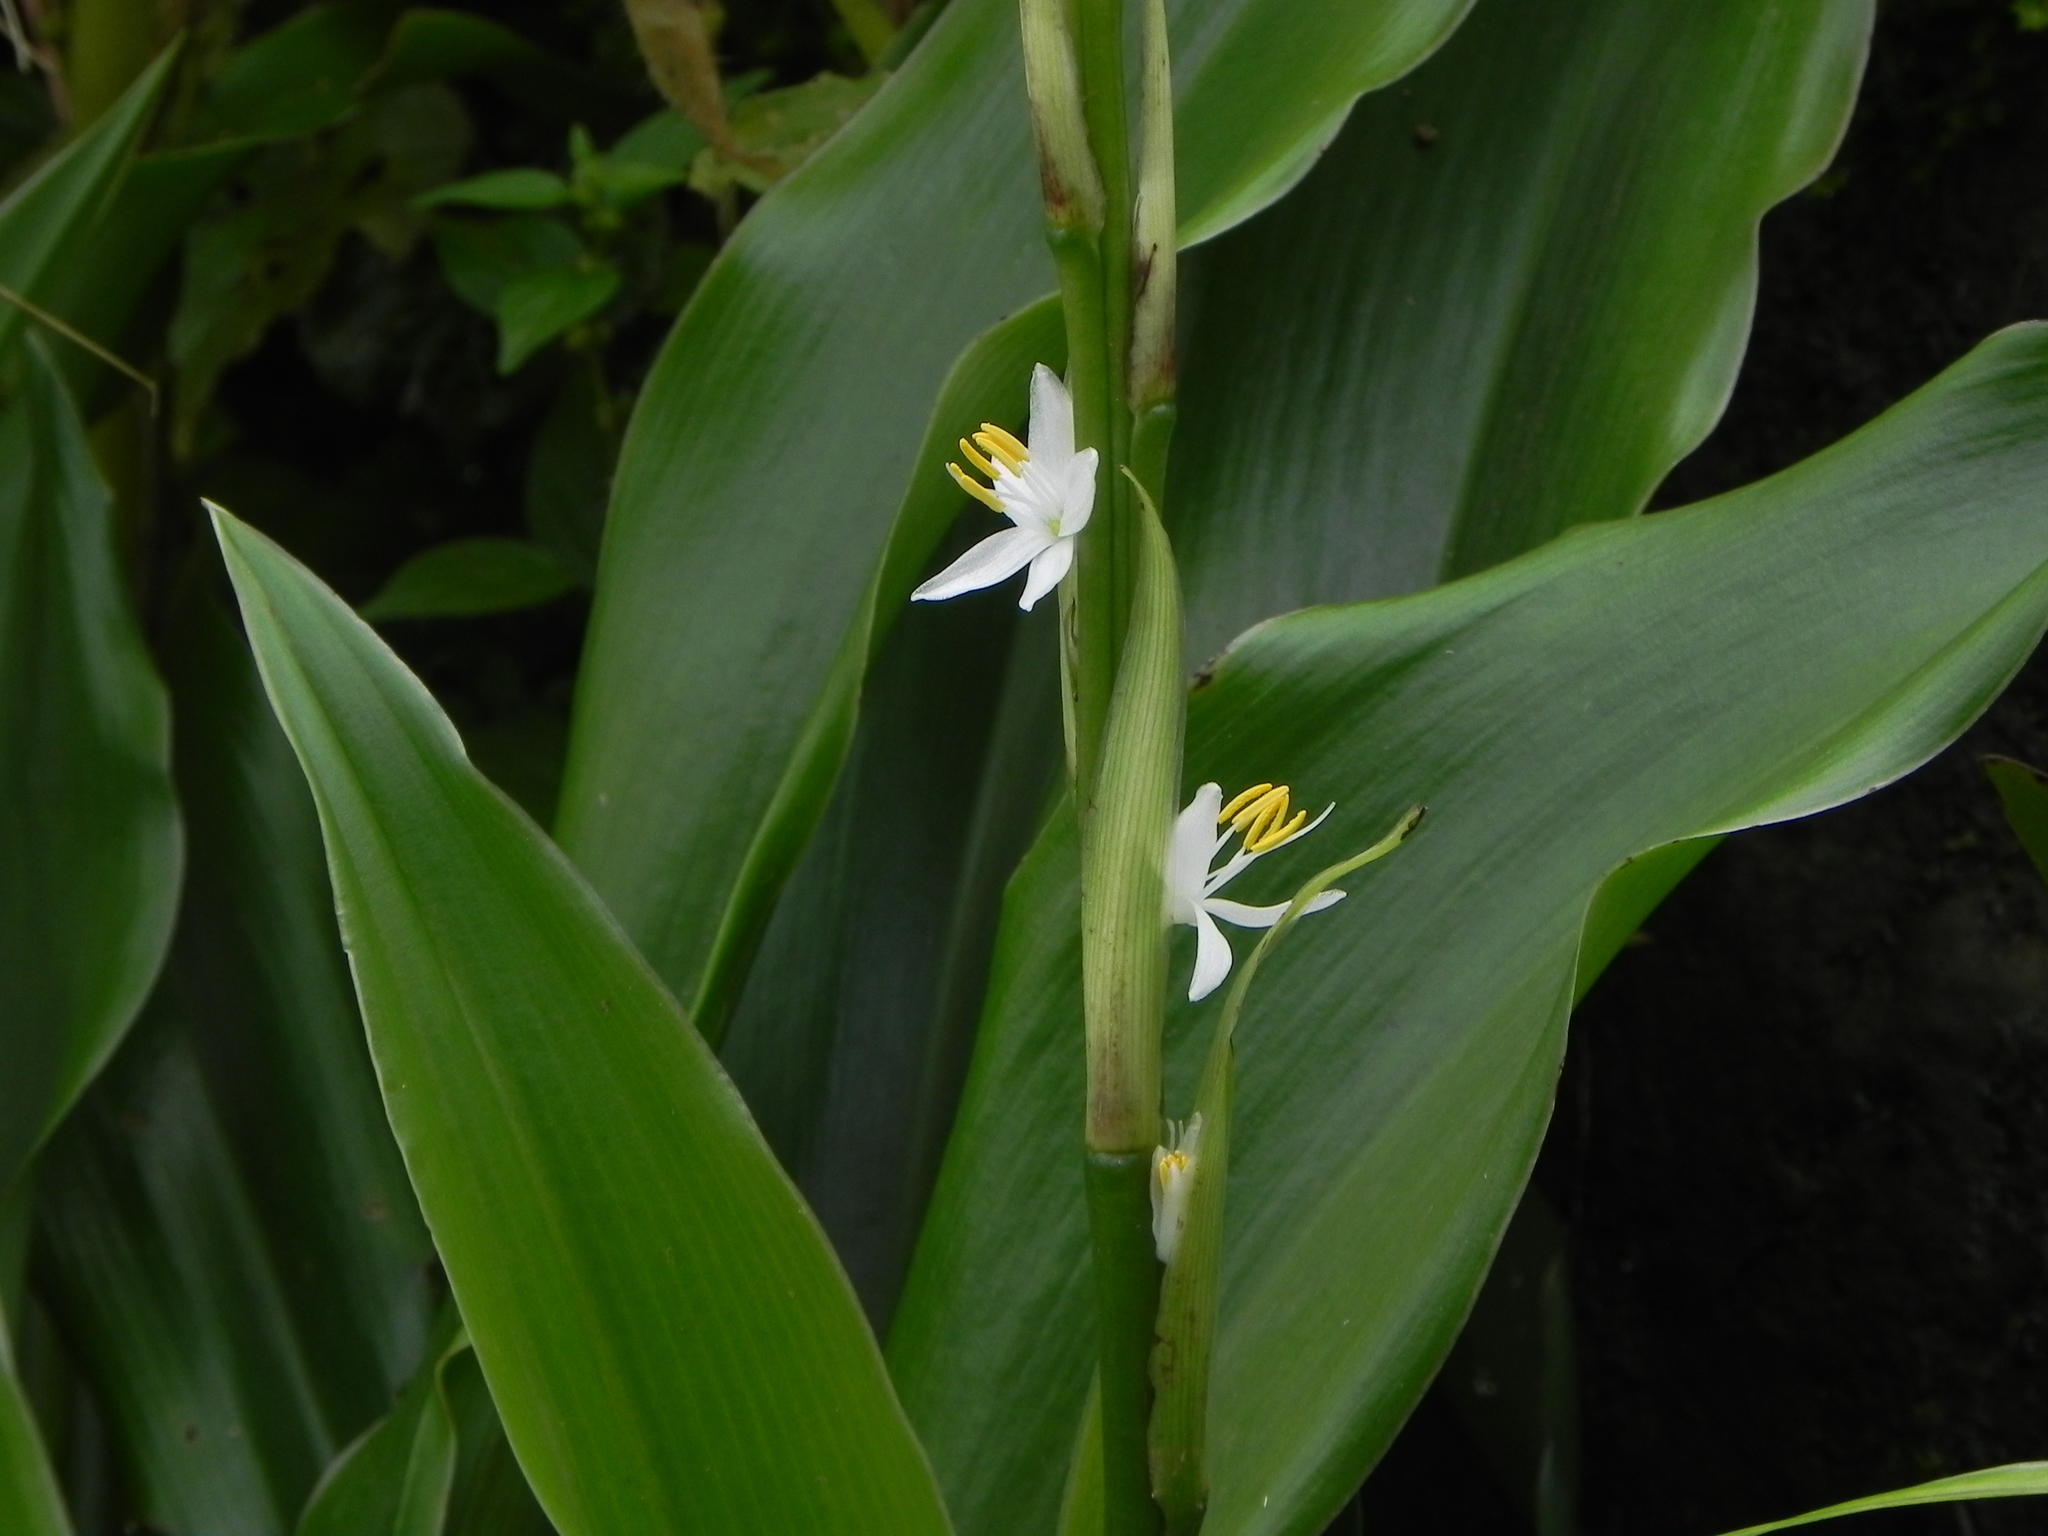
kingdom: Plantae
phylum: Tracheophyta
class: Liliopsida
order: Asparagales
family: Asparagaceae
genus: Chlorophytum
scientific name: Chlorophytum glaucum
